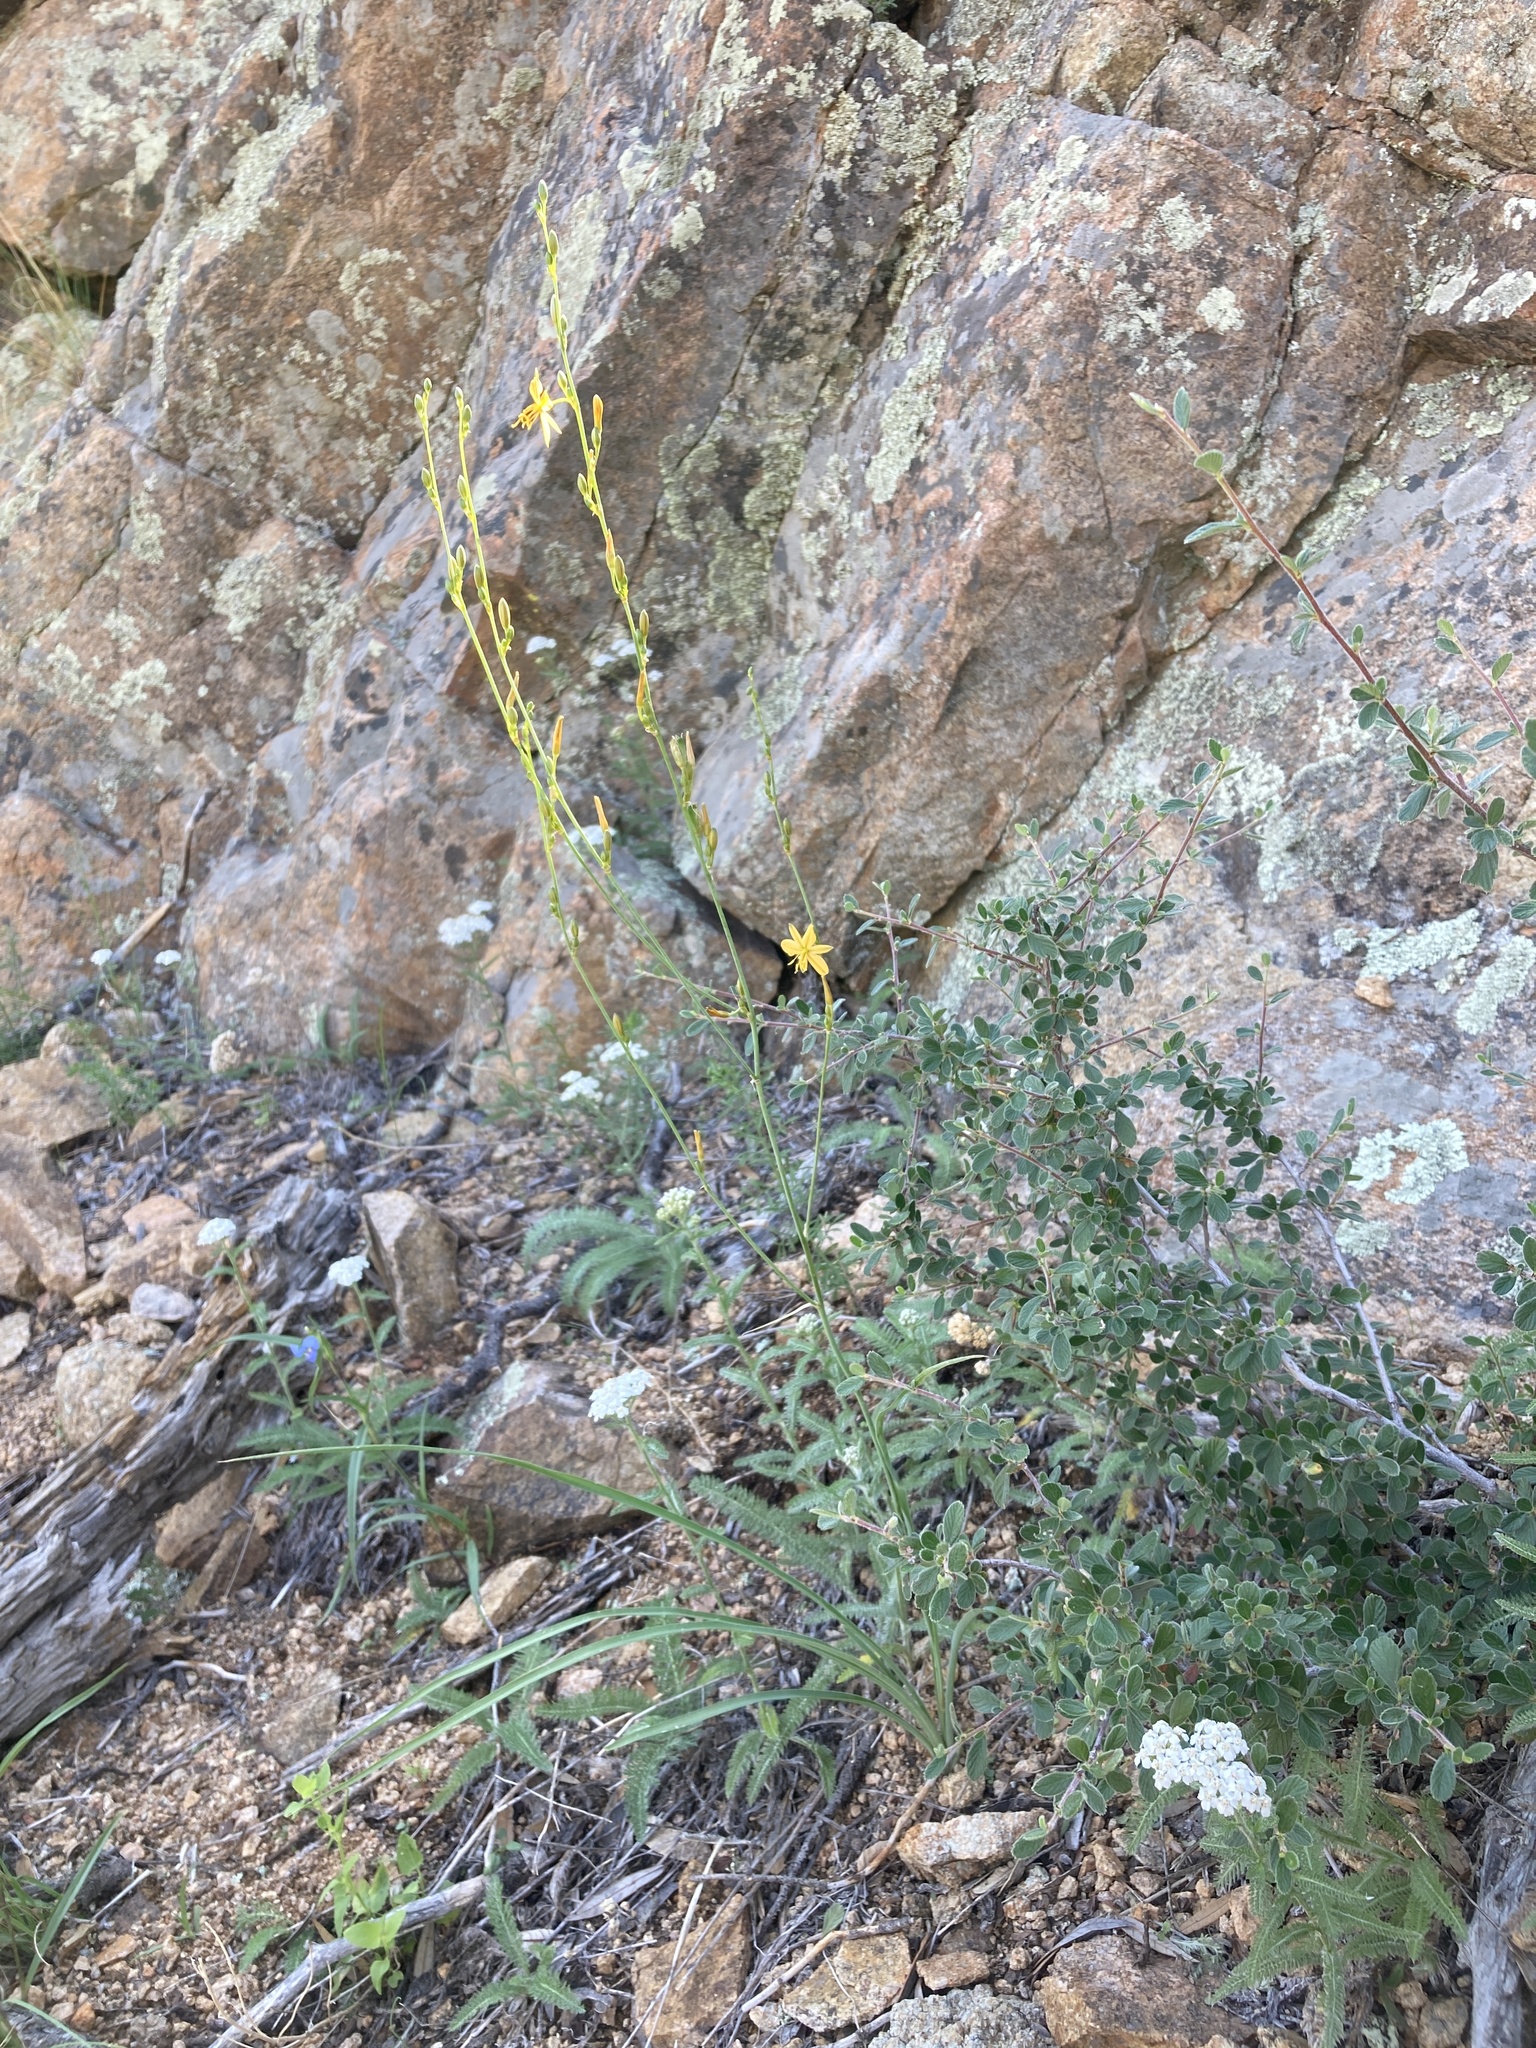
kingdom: Plantae
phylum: Tracheophyta
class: Liliopsida
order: Asparagales
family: Asparagaceae
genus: Echeandia
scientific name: Echeandia flavescens
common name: Amberlily
